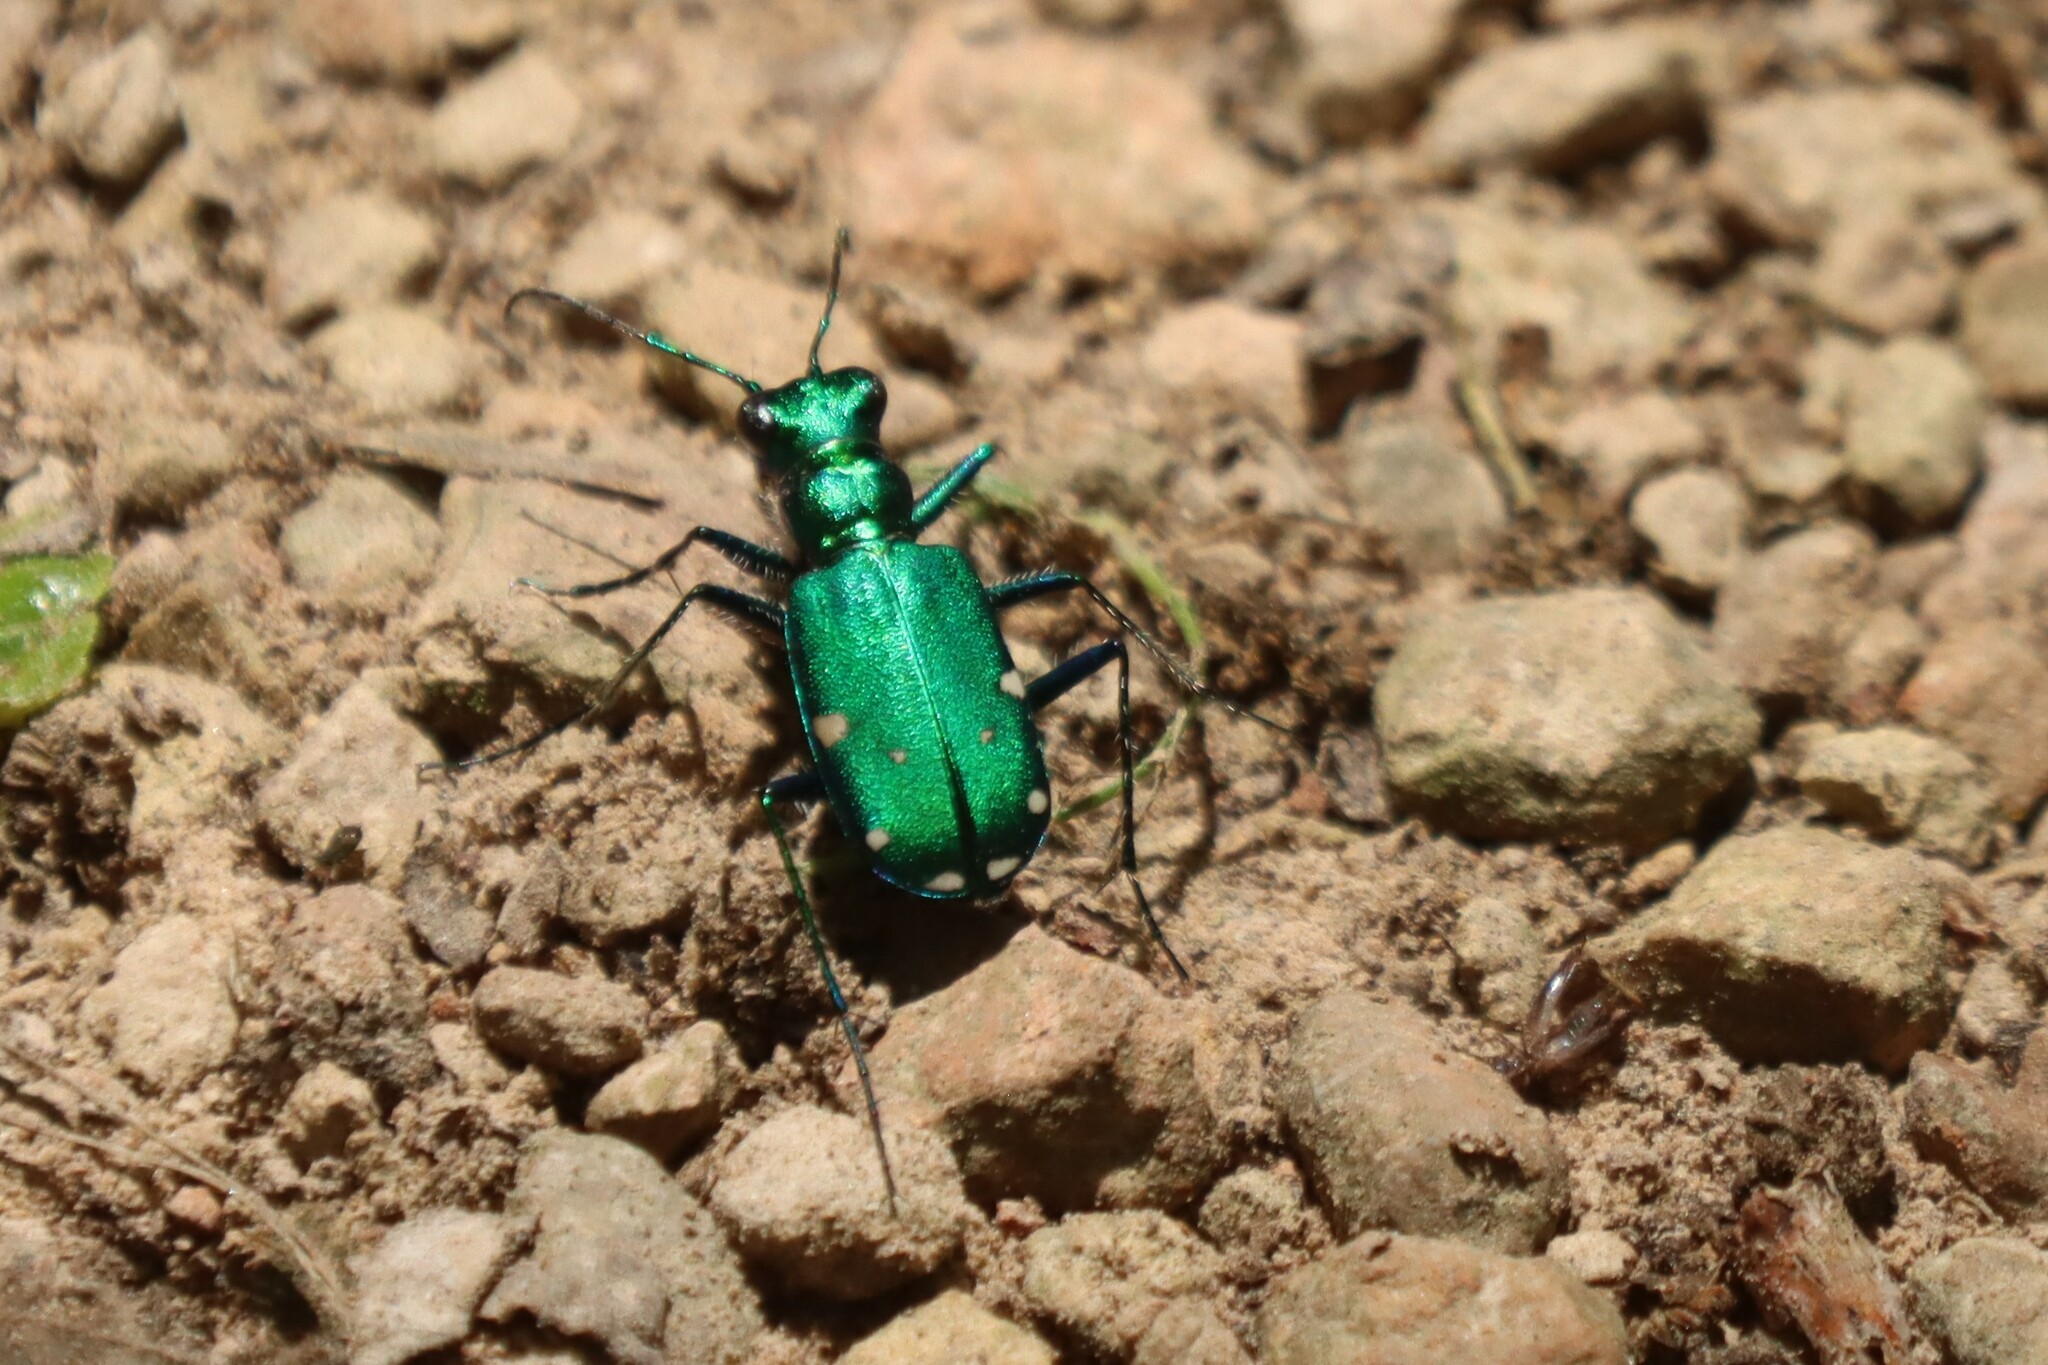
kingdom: Animalia
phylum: Arthropoda
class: Insecta
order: Coleoptera
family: Carabidae
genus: Cicindela
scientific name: Cicindela sexguttata
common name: Six-spotted tiger beetle
